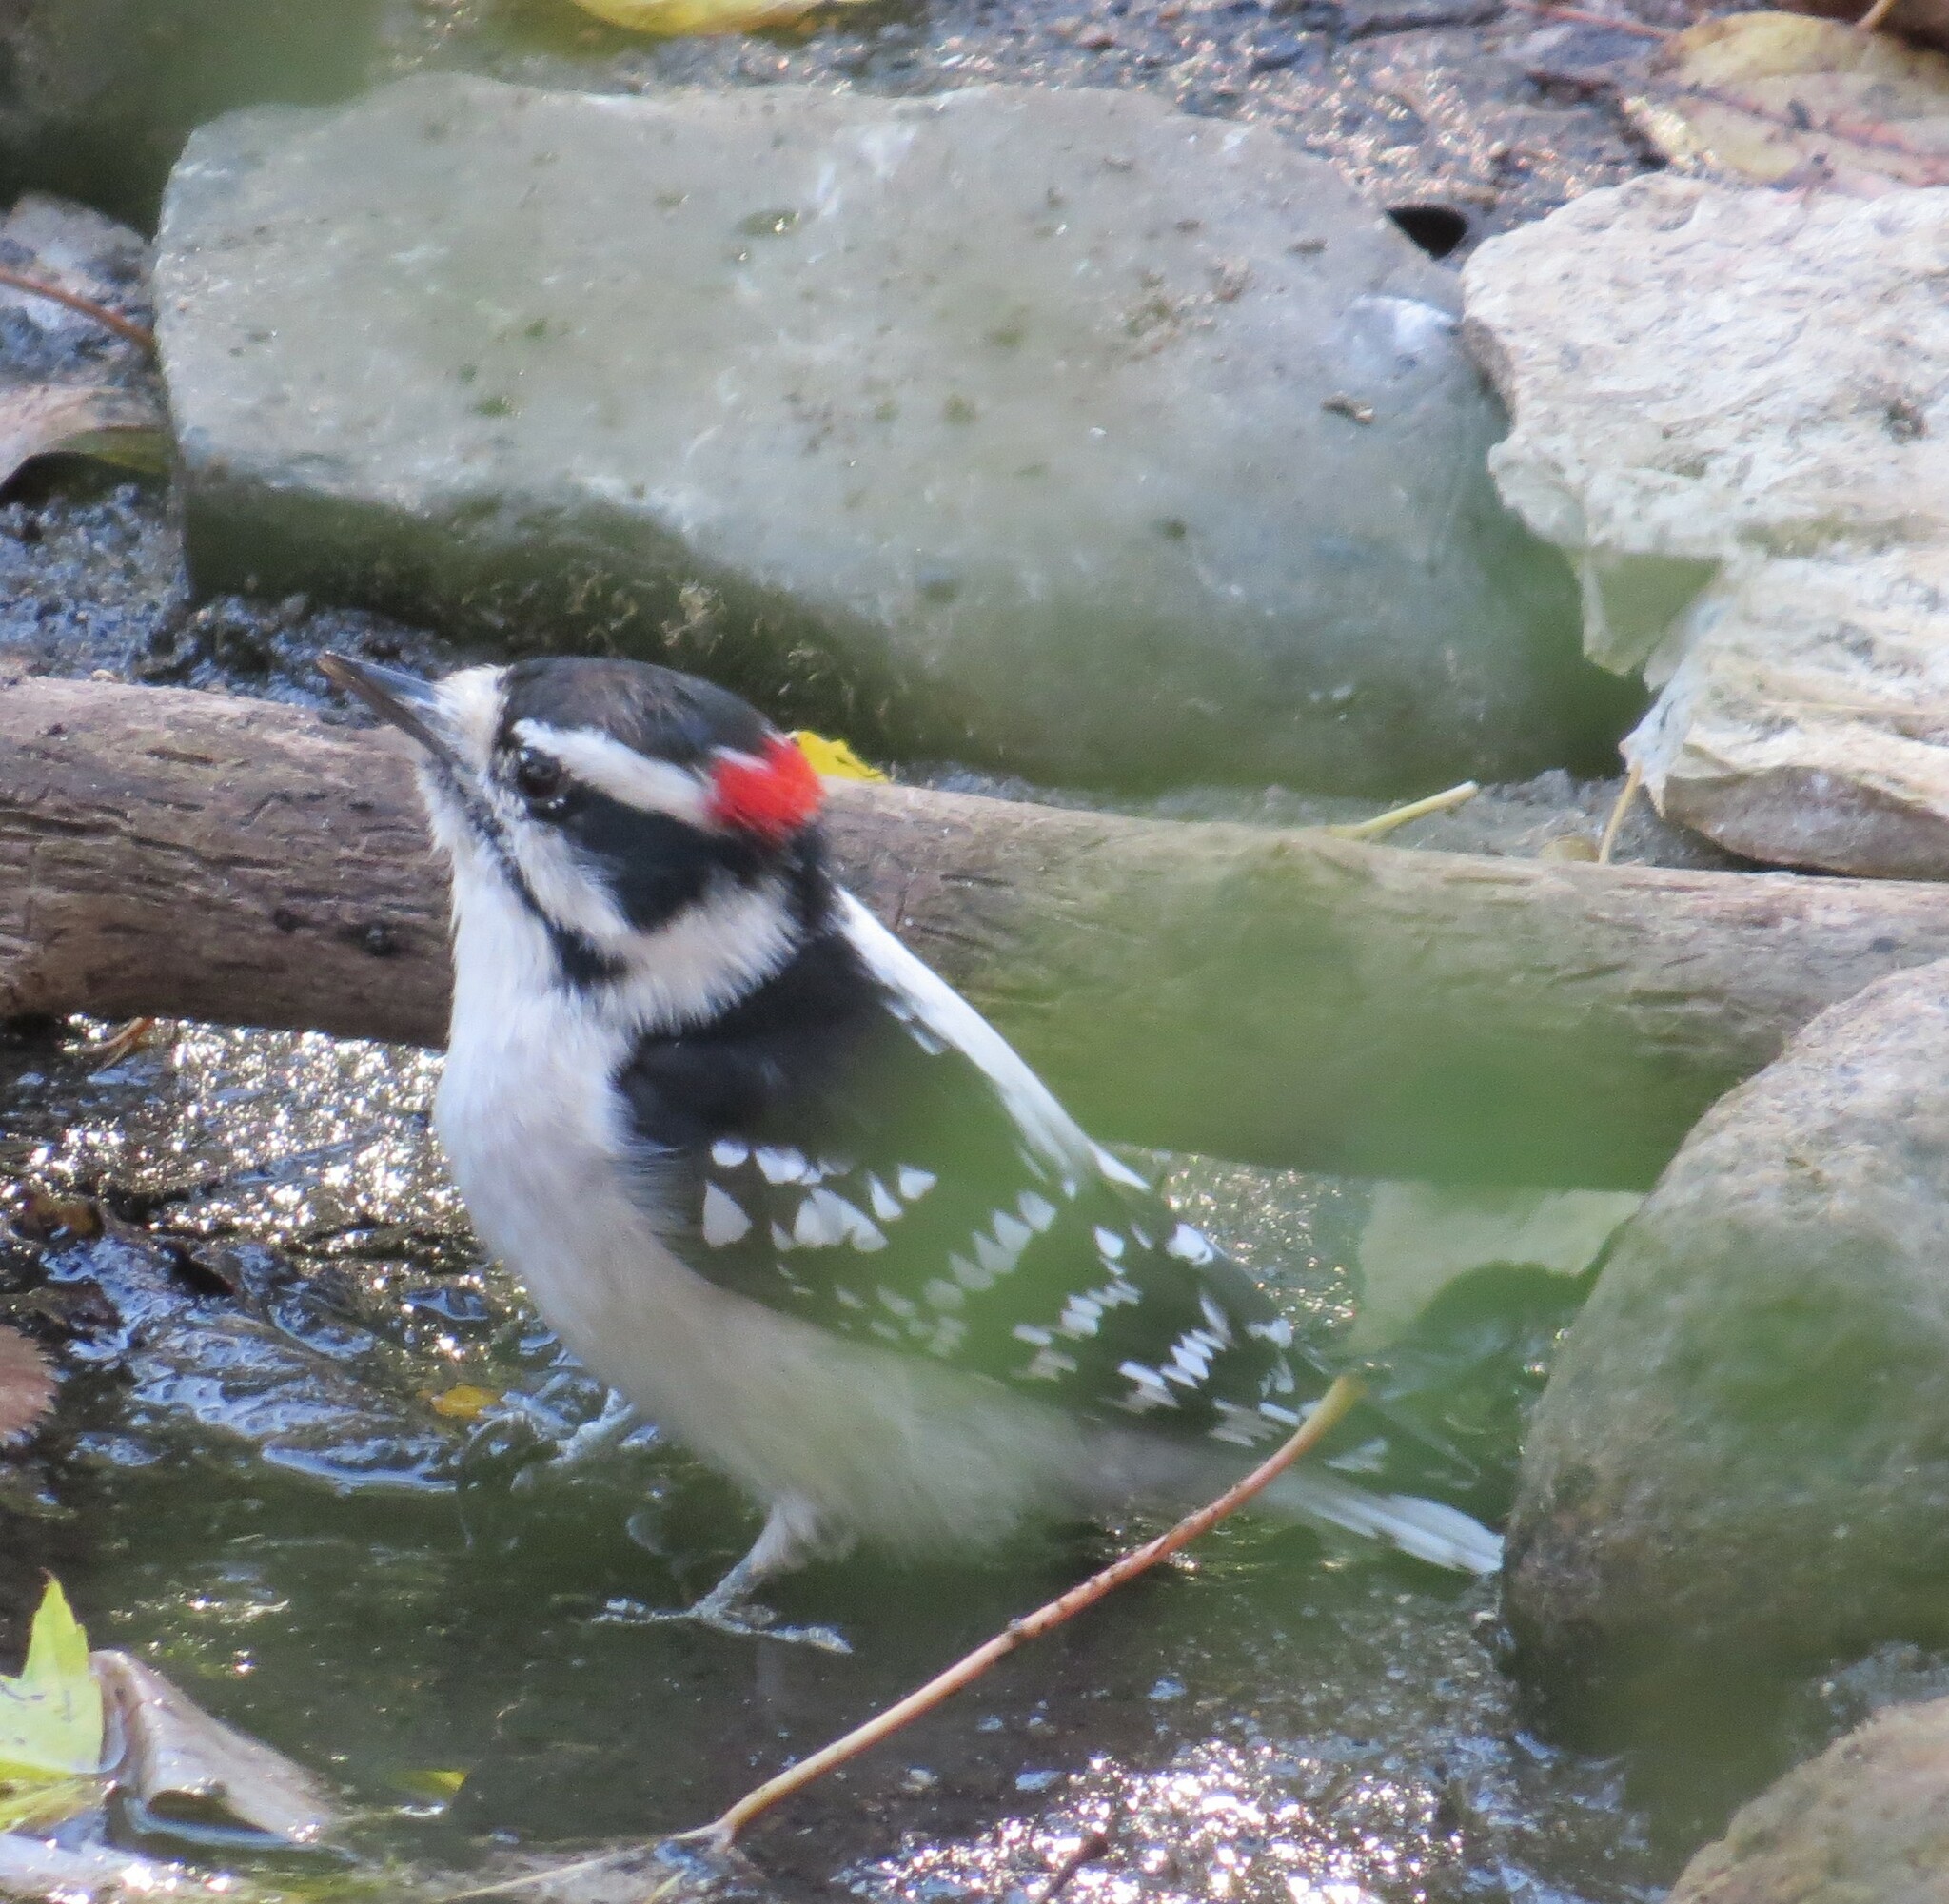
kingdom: Animalia
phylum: Chordata
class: Aves
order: Piciformes
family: Picidae
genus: Dryobates
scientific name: Dryobates pubescens
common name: Downy woodpecker
